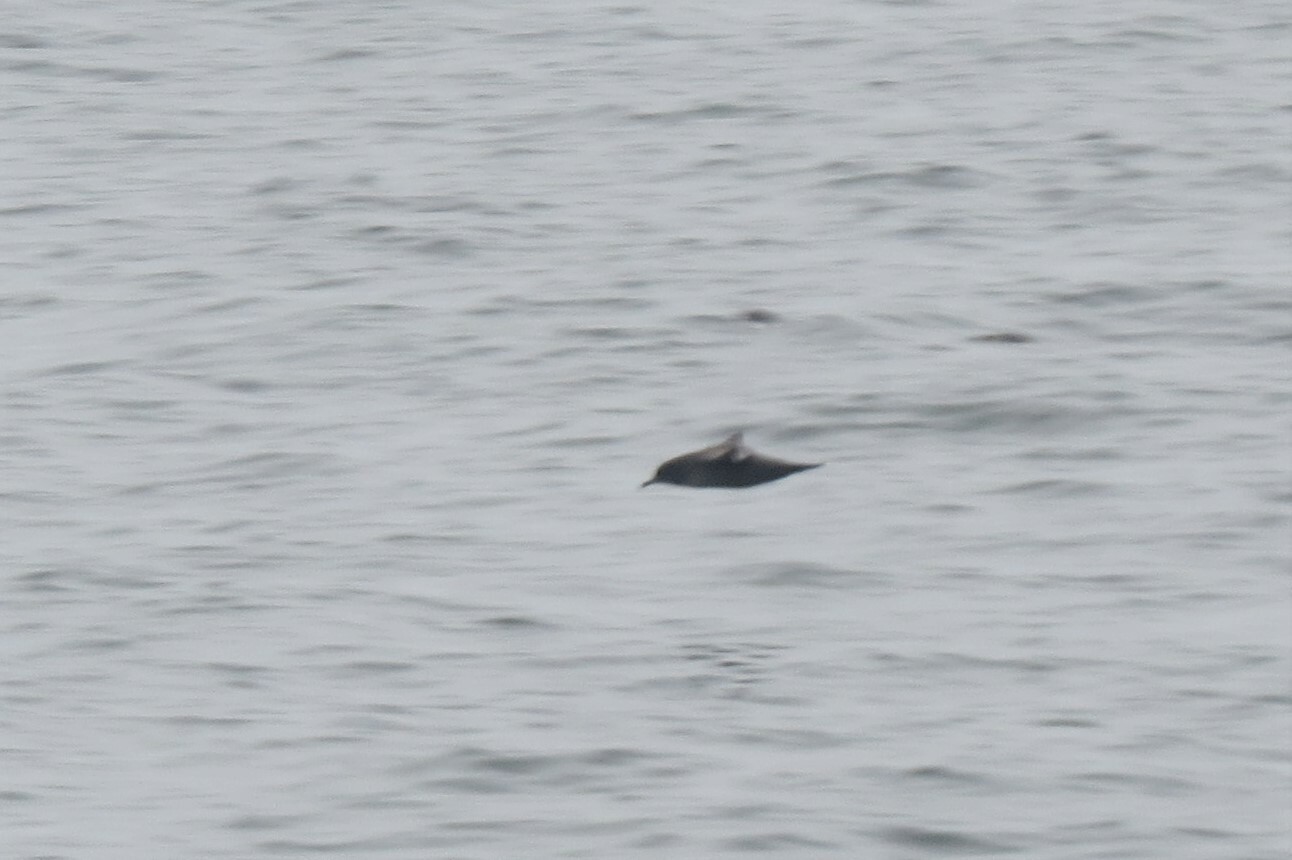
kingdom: Animalia
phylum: Chordata
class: Aves
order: Procellariiformes
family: Procellariidae
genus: Puffinus
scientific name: Puffinus griseus
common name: Sooty shearwater
